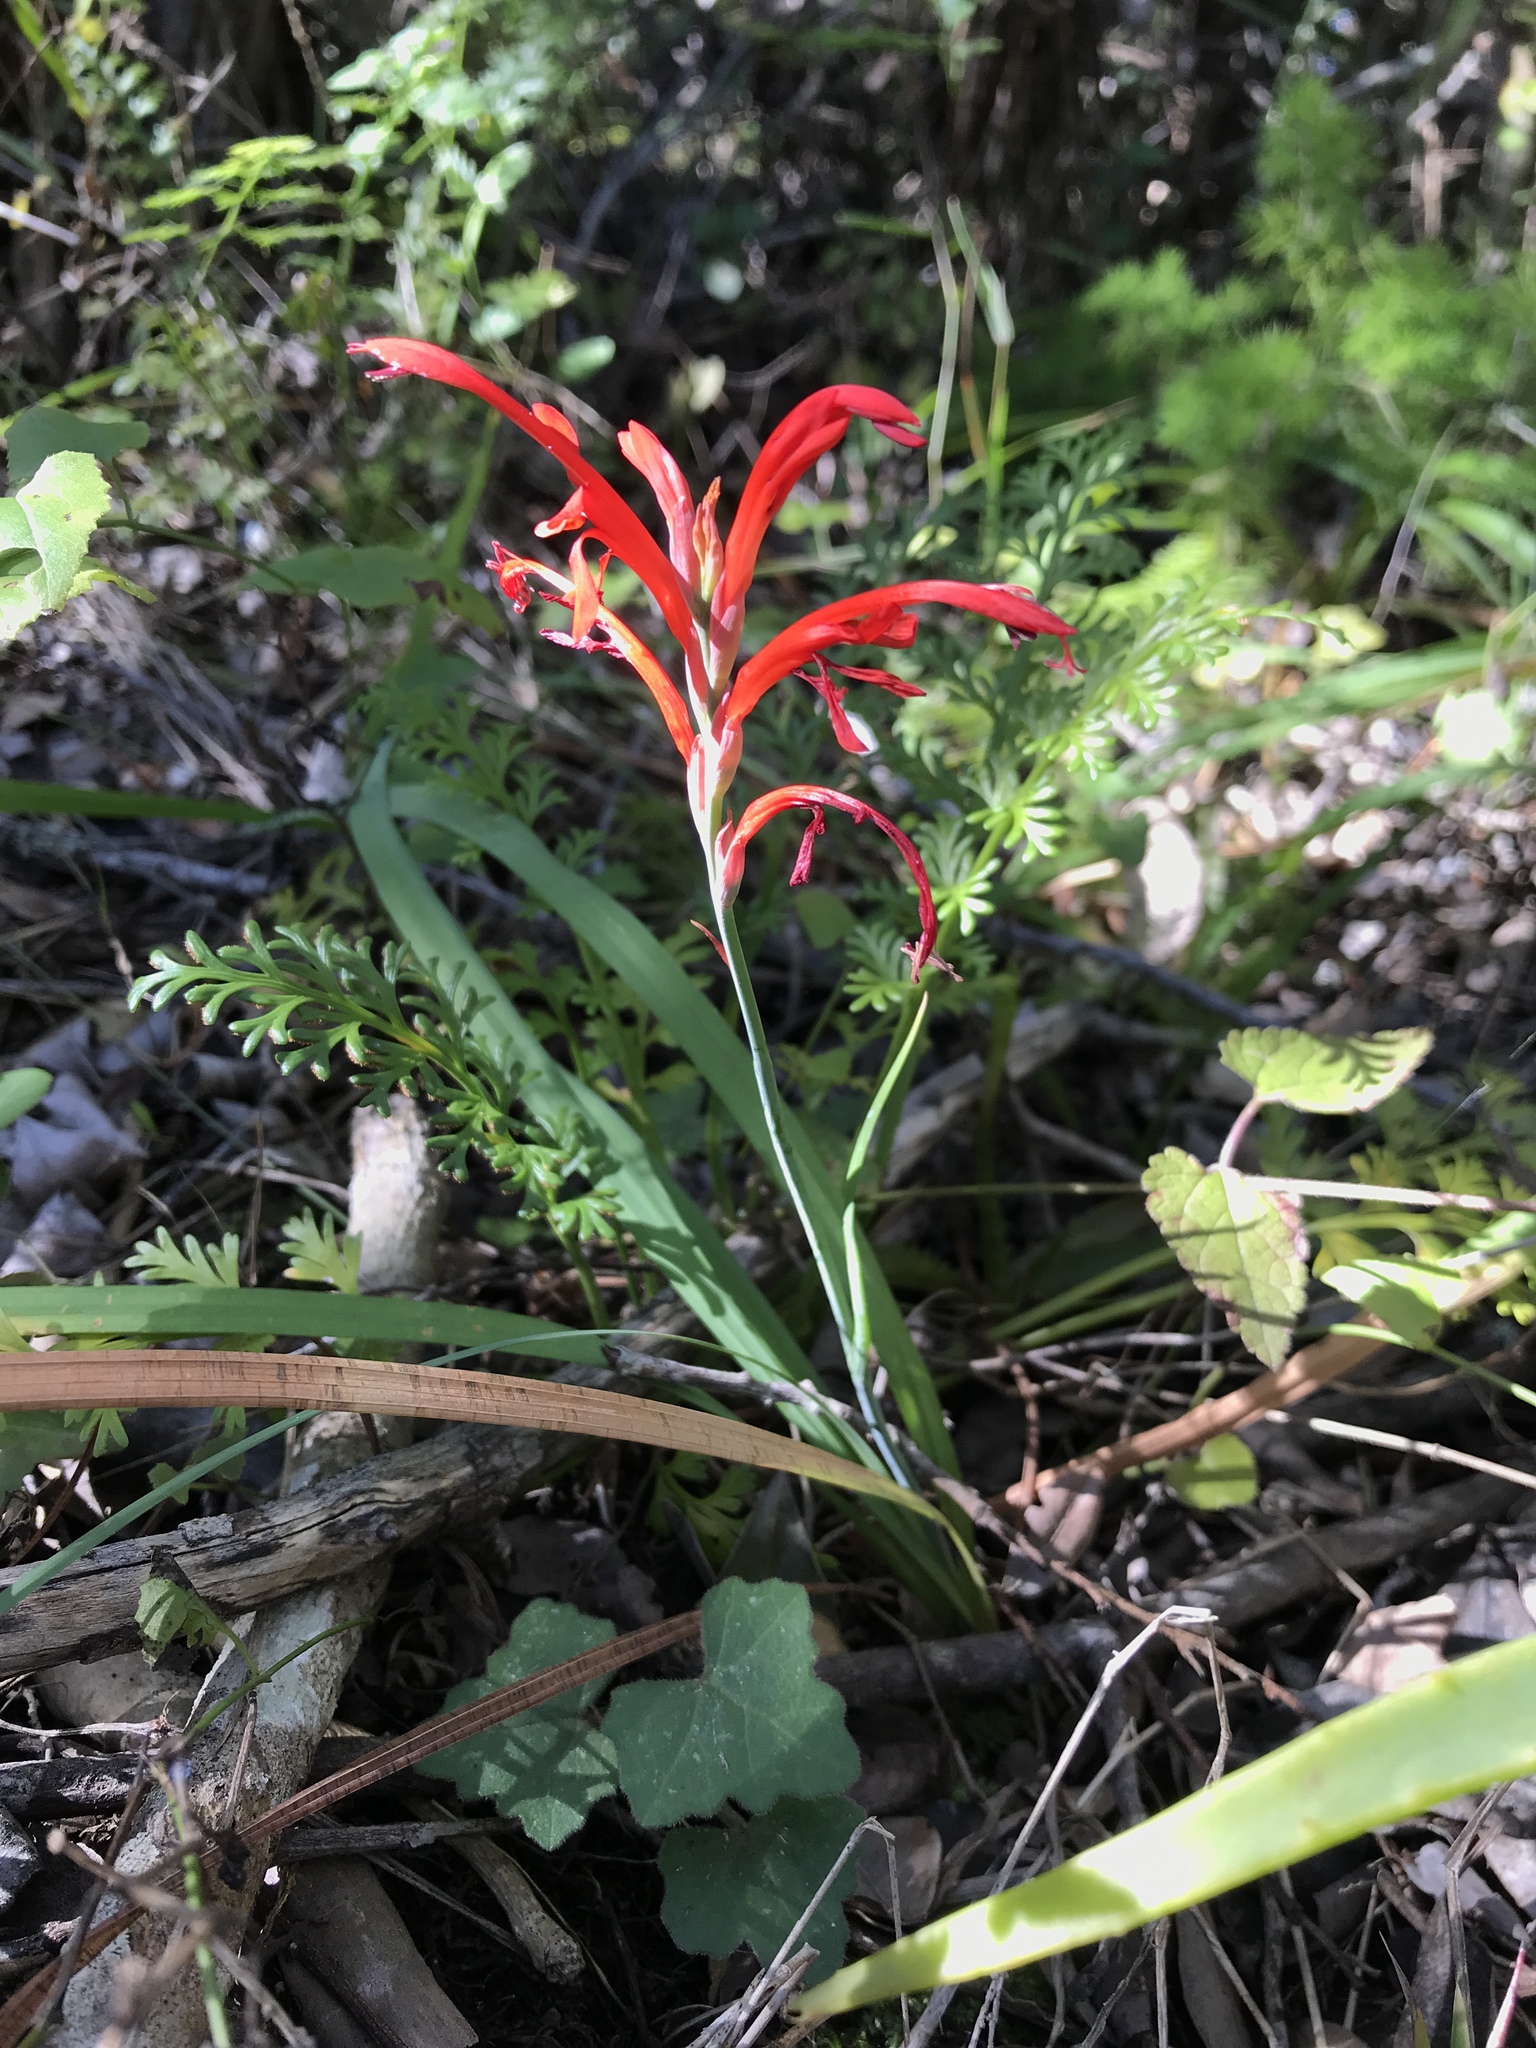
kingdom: Plantae
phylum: Tracheophyta
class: Liliopsida
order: Asparagales
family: Iridaceae
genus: Tritoniopsis
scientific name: Tritoniopsis caffra
